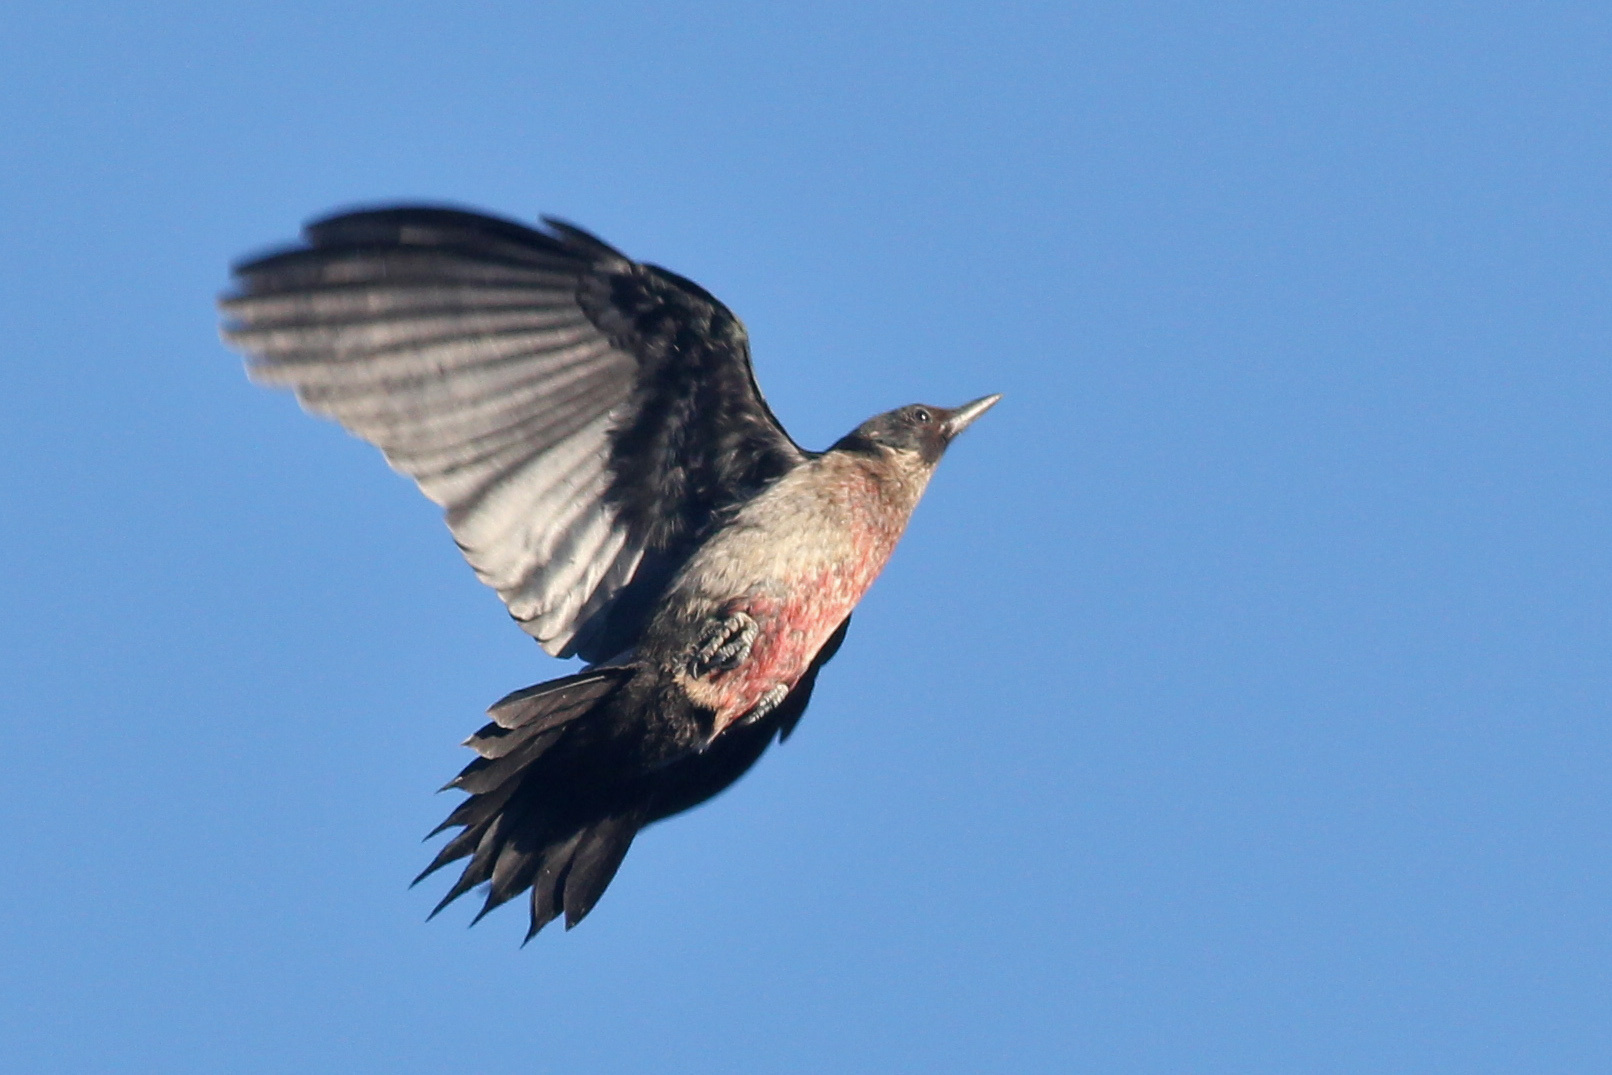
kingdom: Animalia
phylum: Chordata
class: Aves
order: Piciformes
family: Picidae
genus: Melanerpes
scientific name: Melanerpes lewis
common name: Lewis's woodpecker
